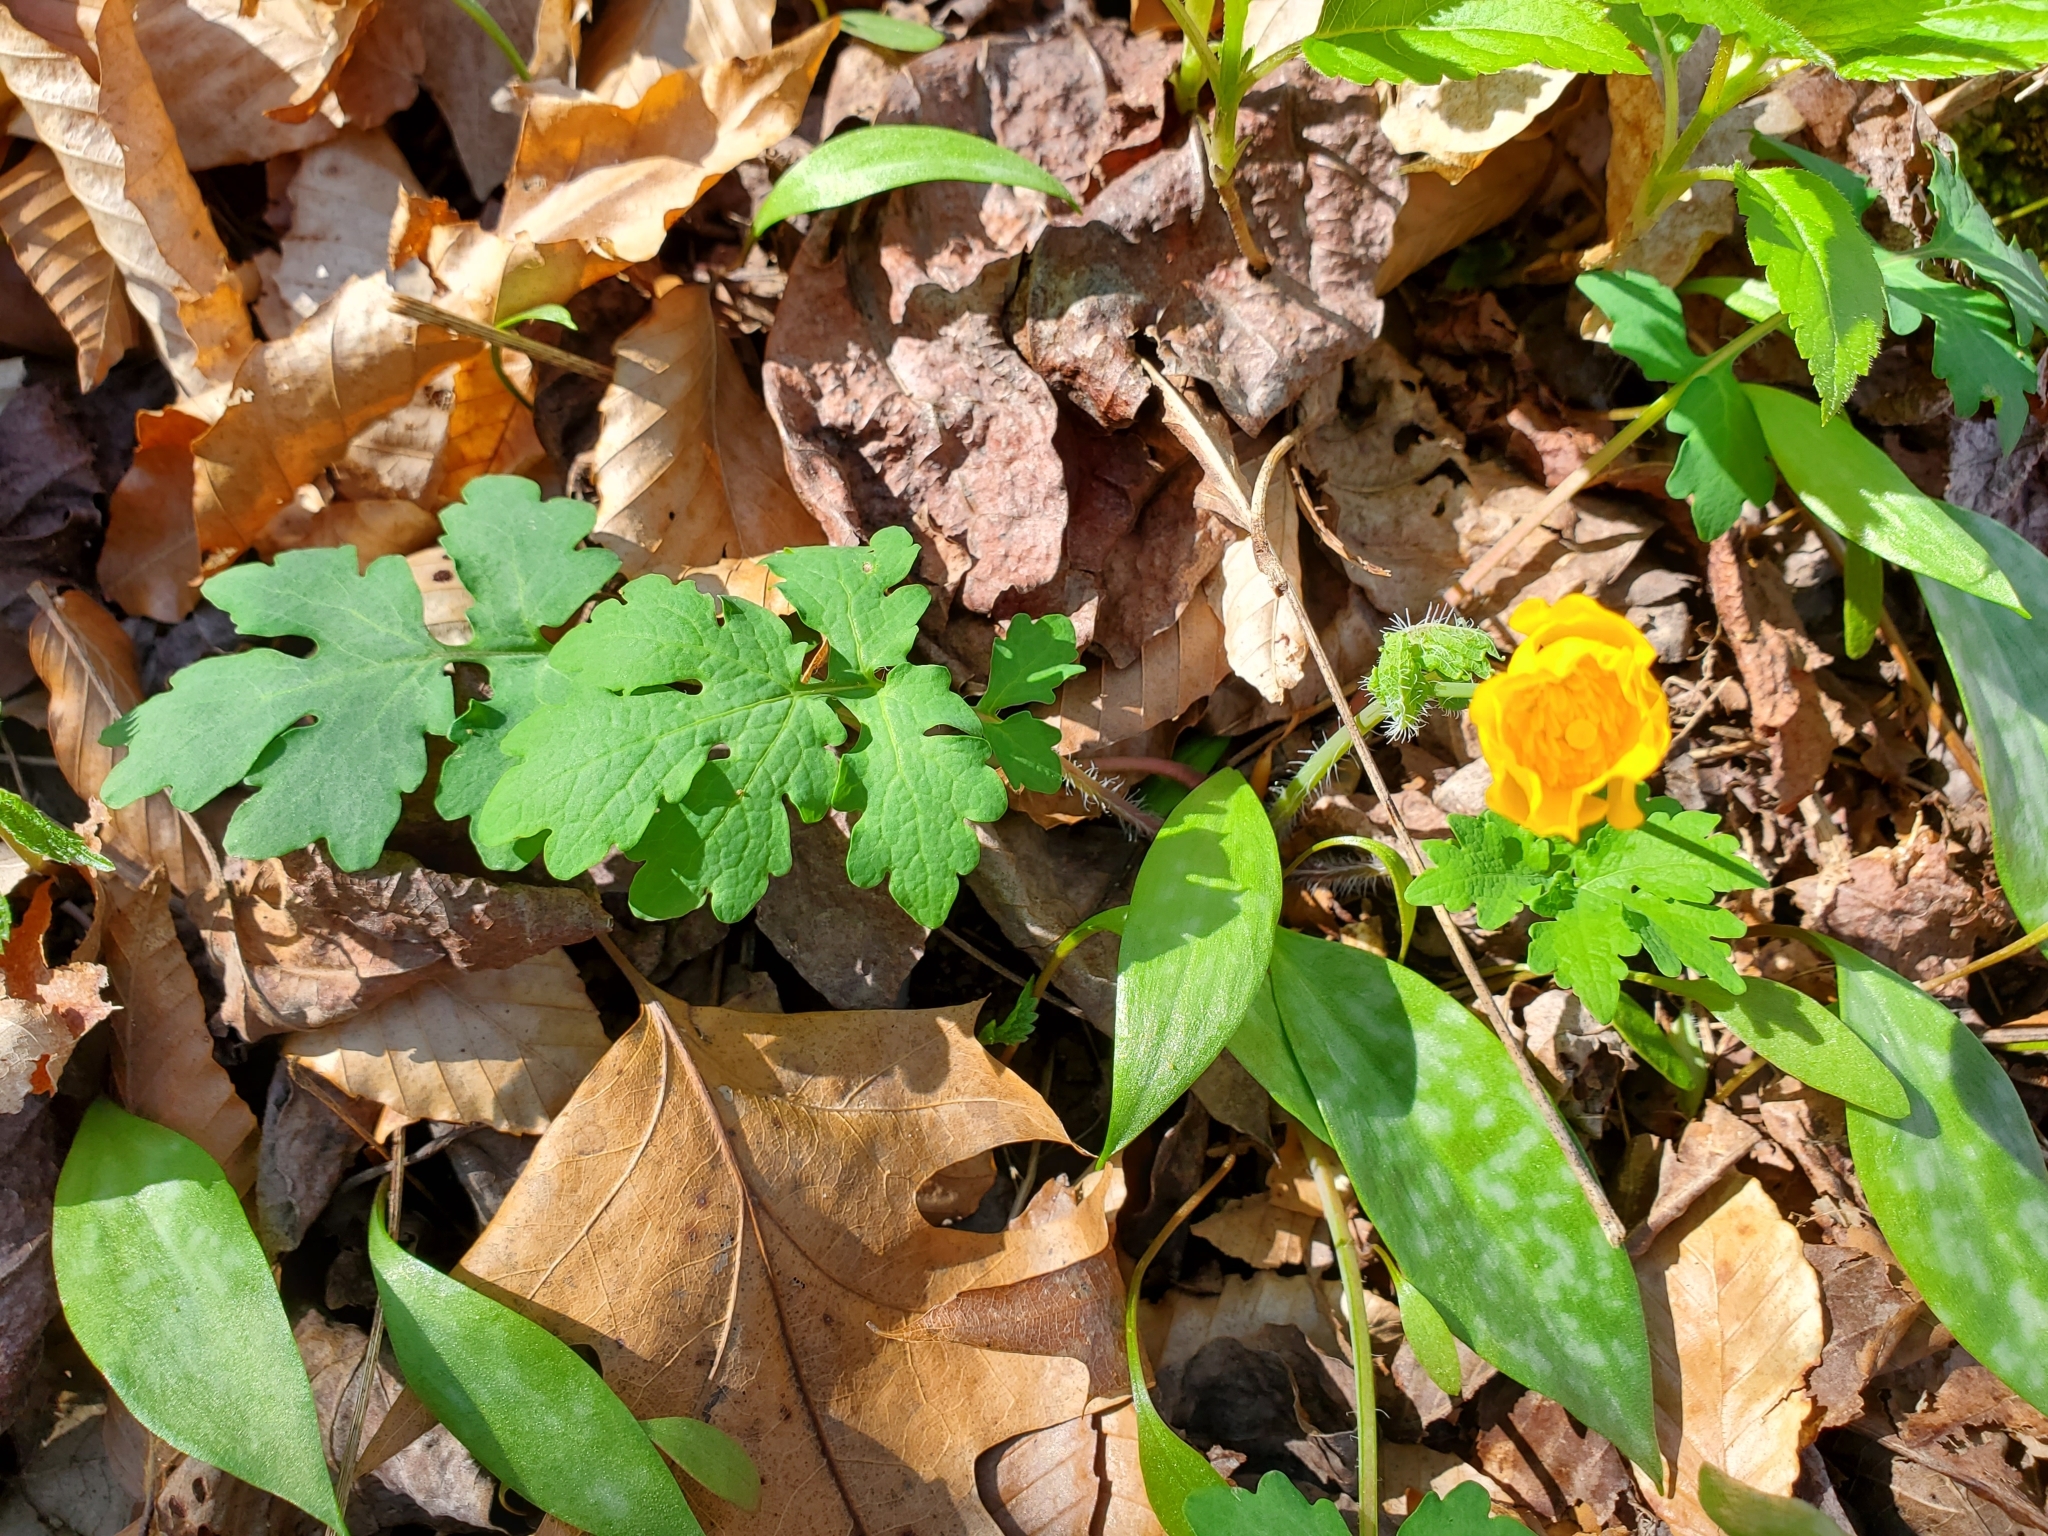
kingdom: Plantae
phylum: Tracheophyta
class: Magnoliopsida
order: Ranunculales
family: Papaveraceae
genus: Stylophorum
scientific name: Stylophorum diphyllum
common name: Celandine poppy
